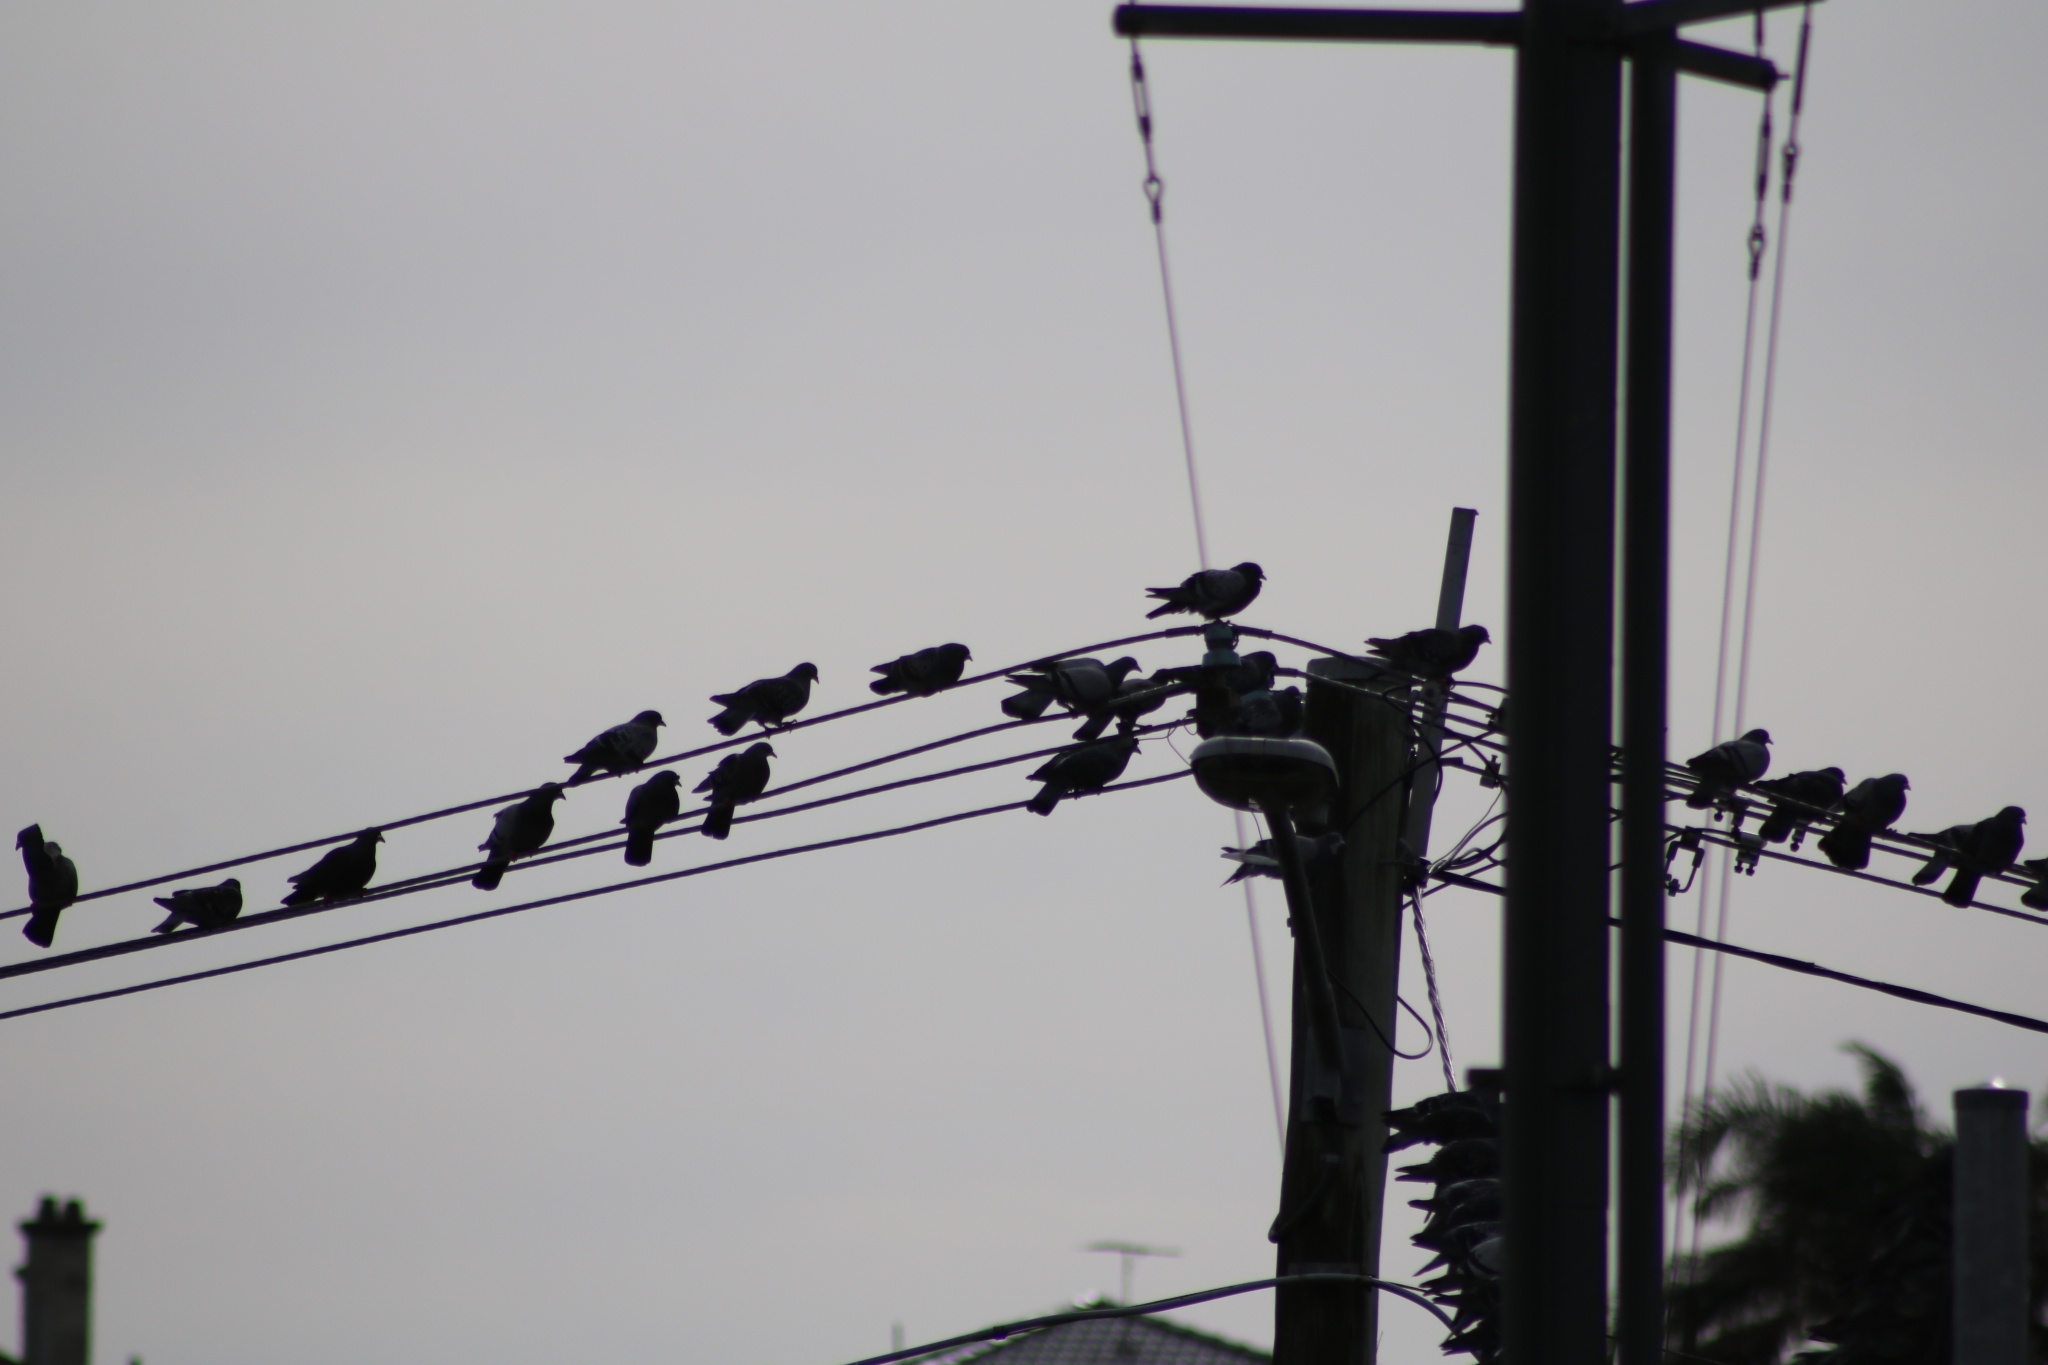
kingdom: Animalia
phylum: Chordata
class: Aves
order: Columbiformes
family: Columbidae
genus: Columba
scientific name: Columba livia
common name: Rock pigeon
